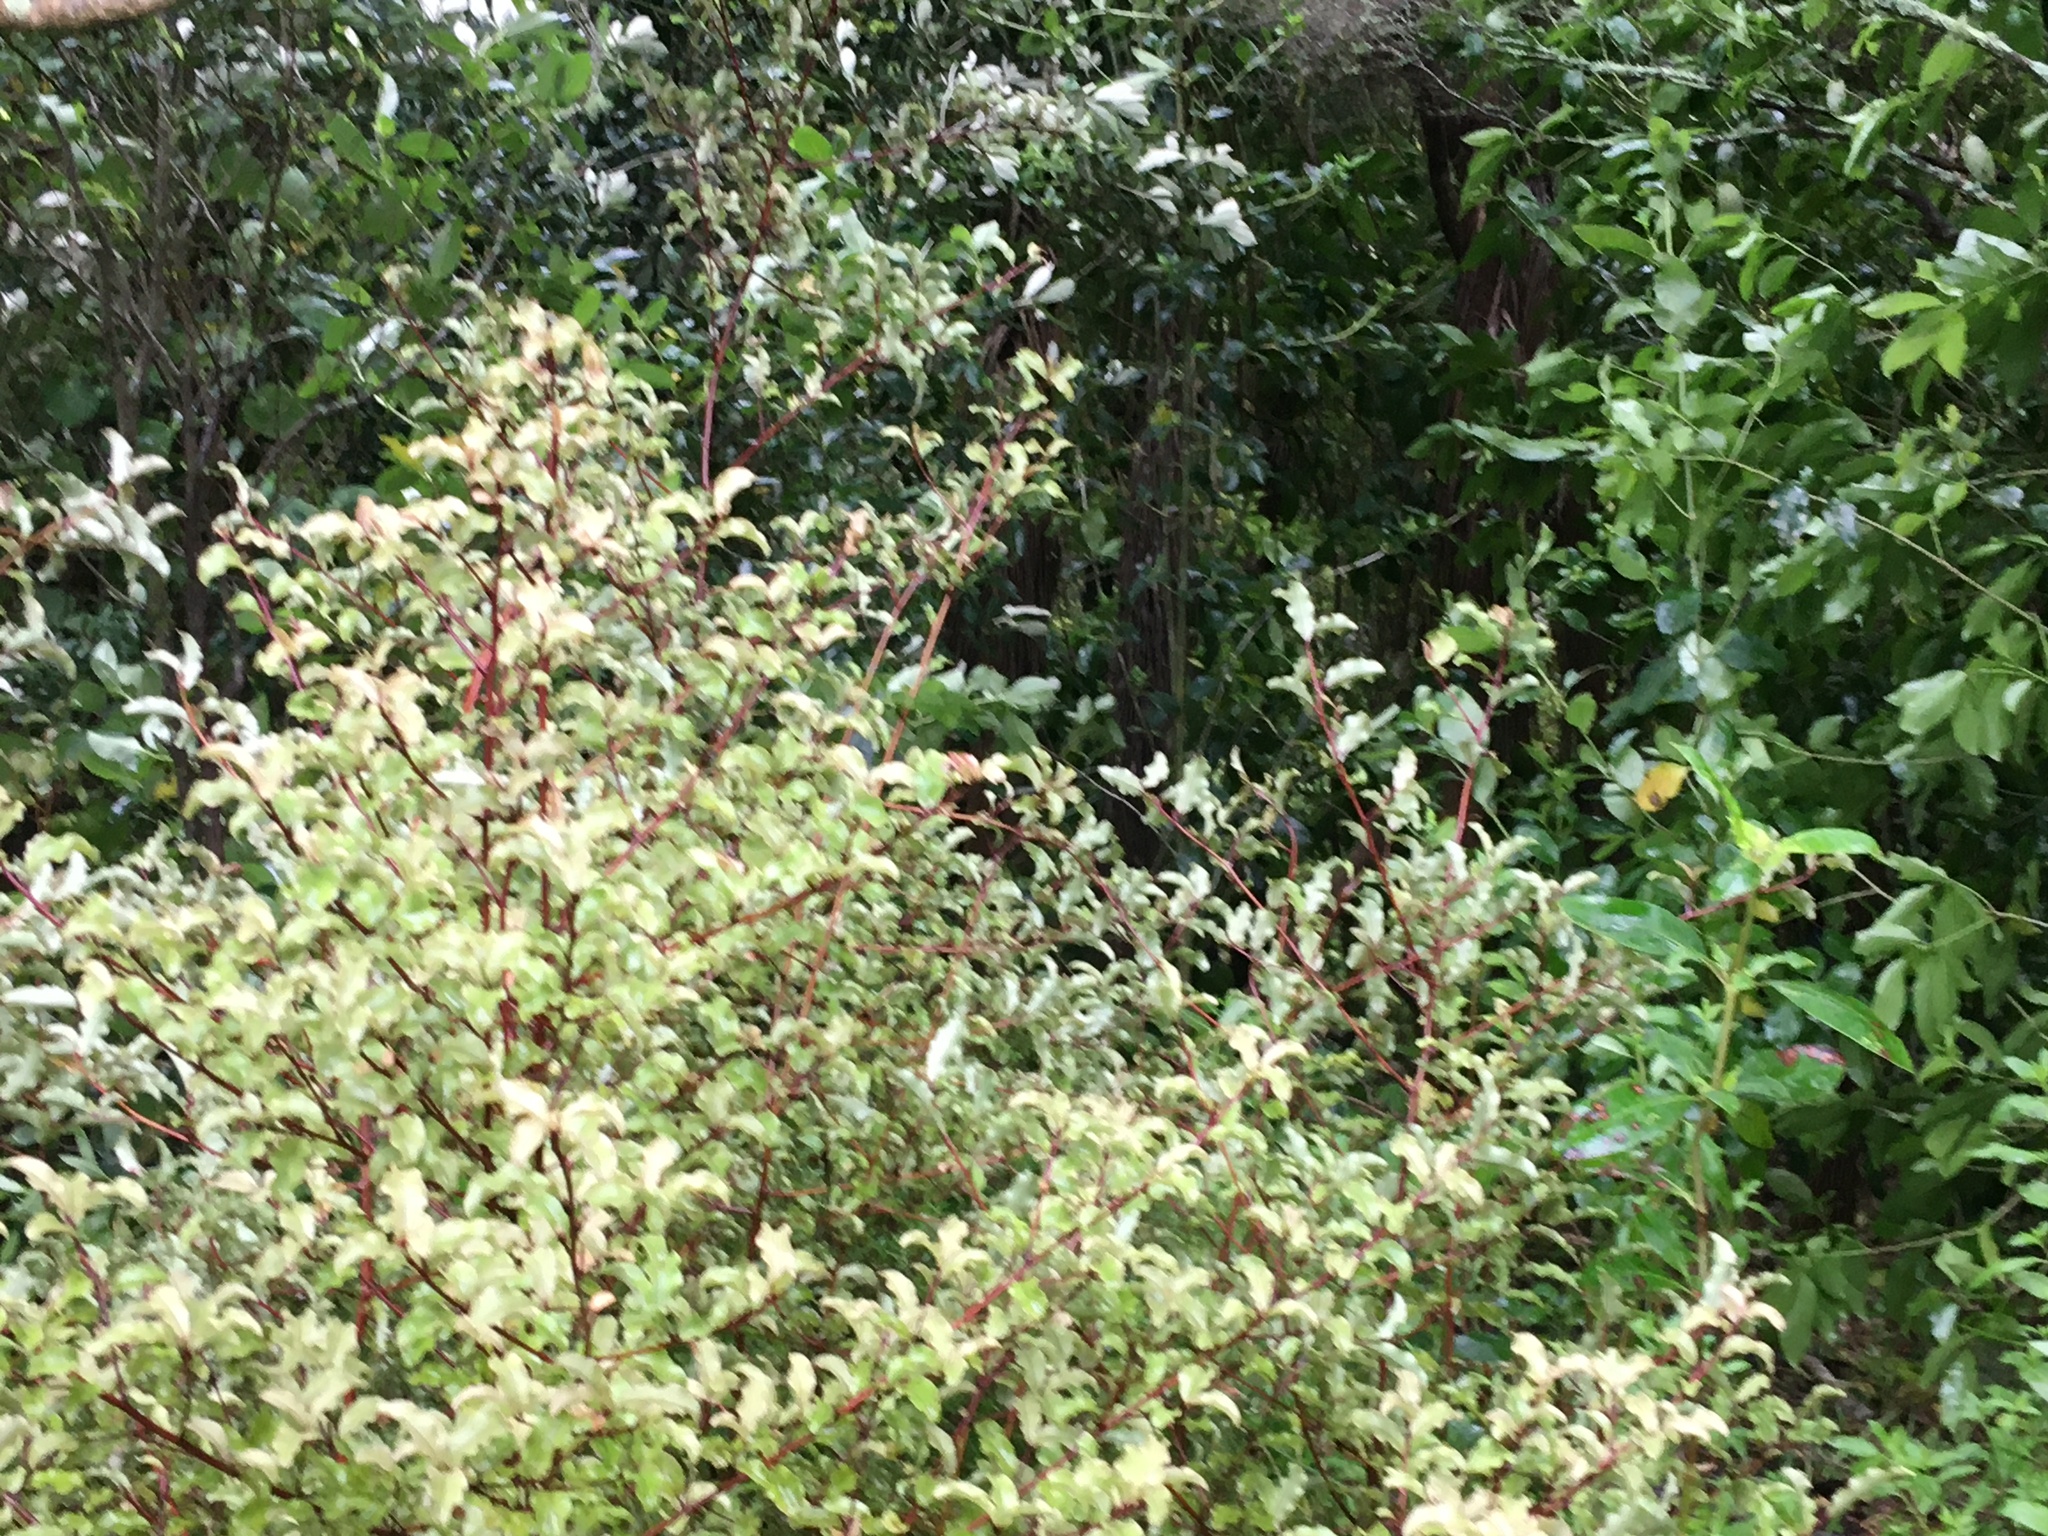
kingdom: Plantae
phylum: Tracheophyta
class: Magnoliopsida
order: Gentianales
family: Rubiaceae
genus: Coprosma
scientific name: Coprosma robusta
